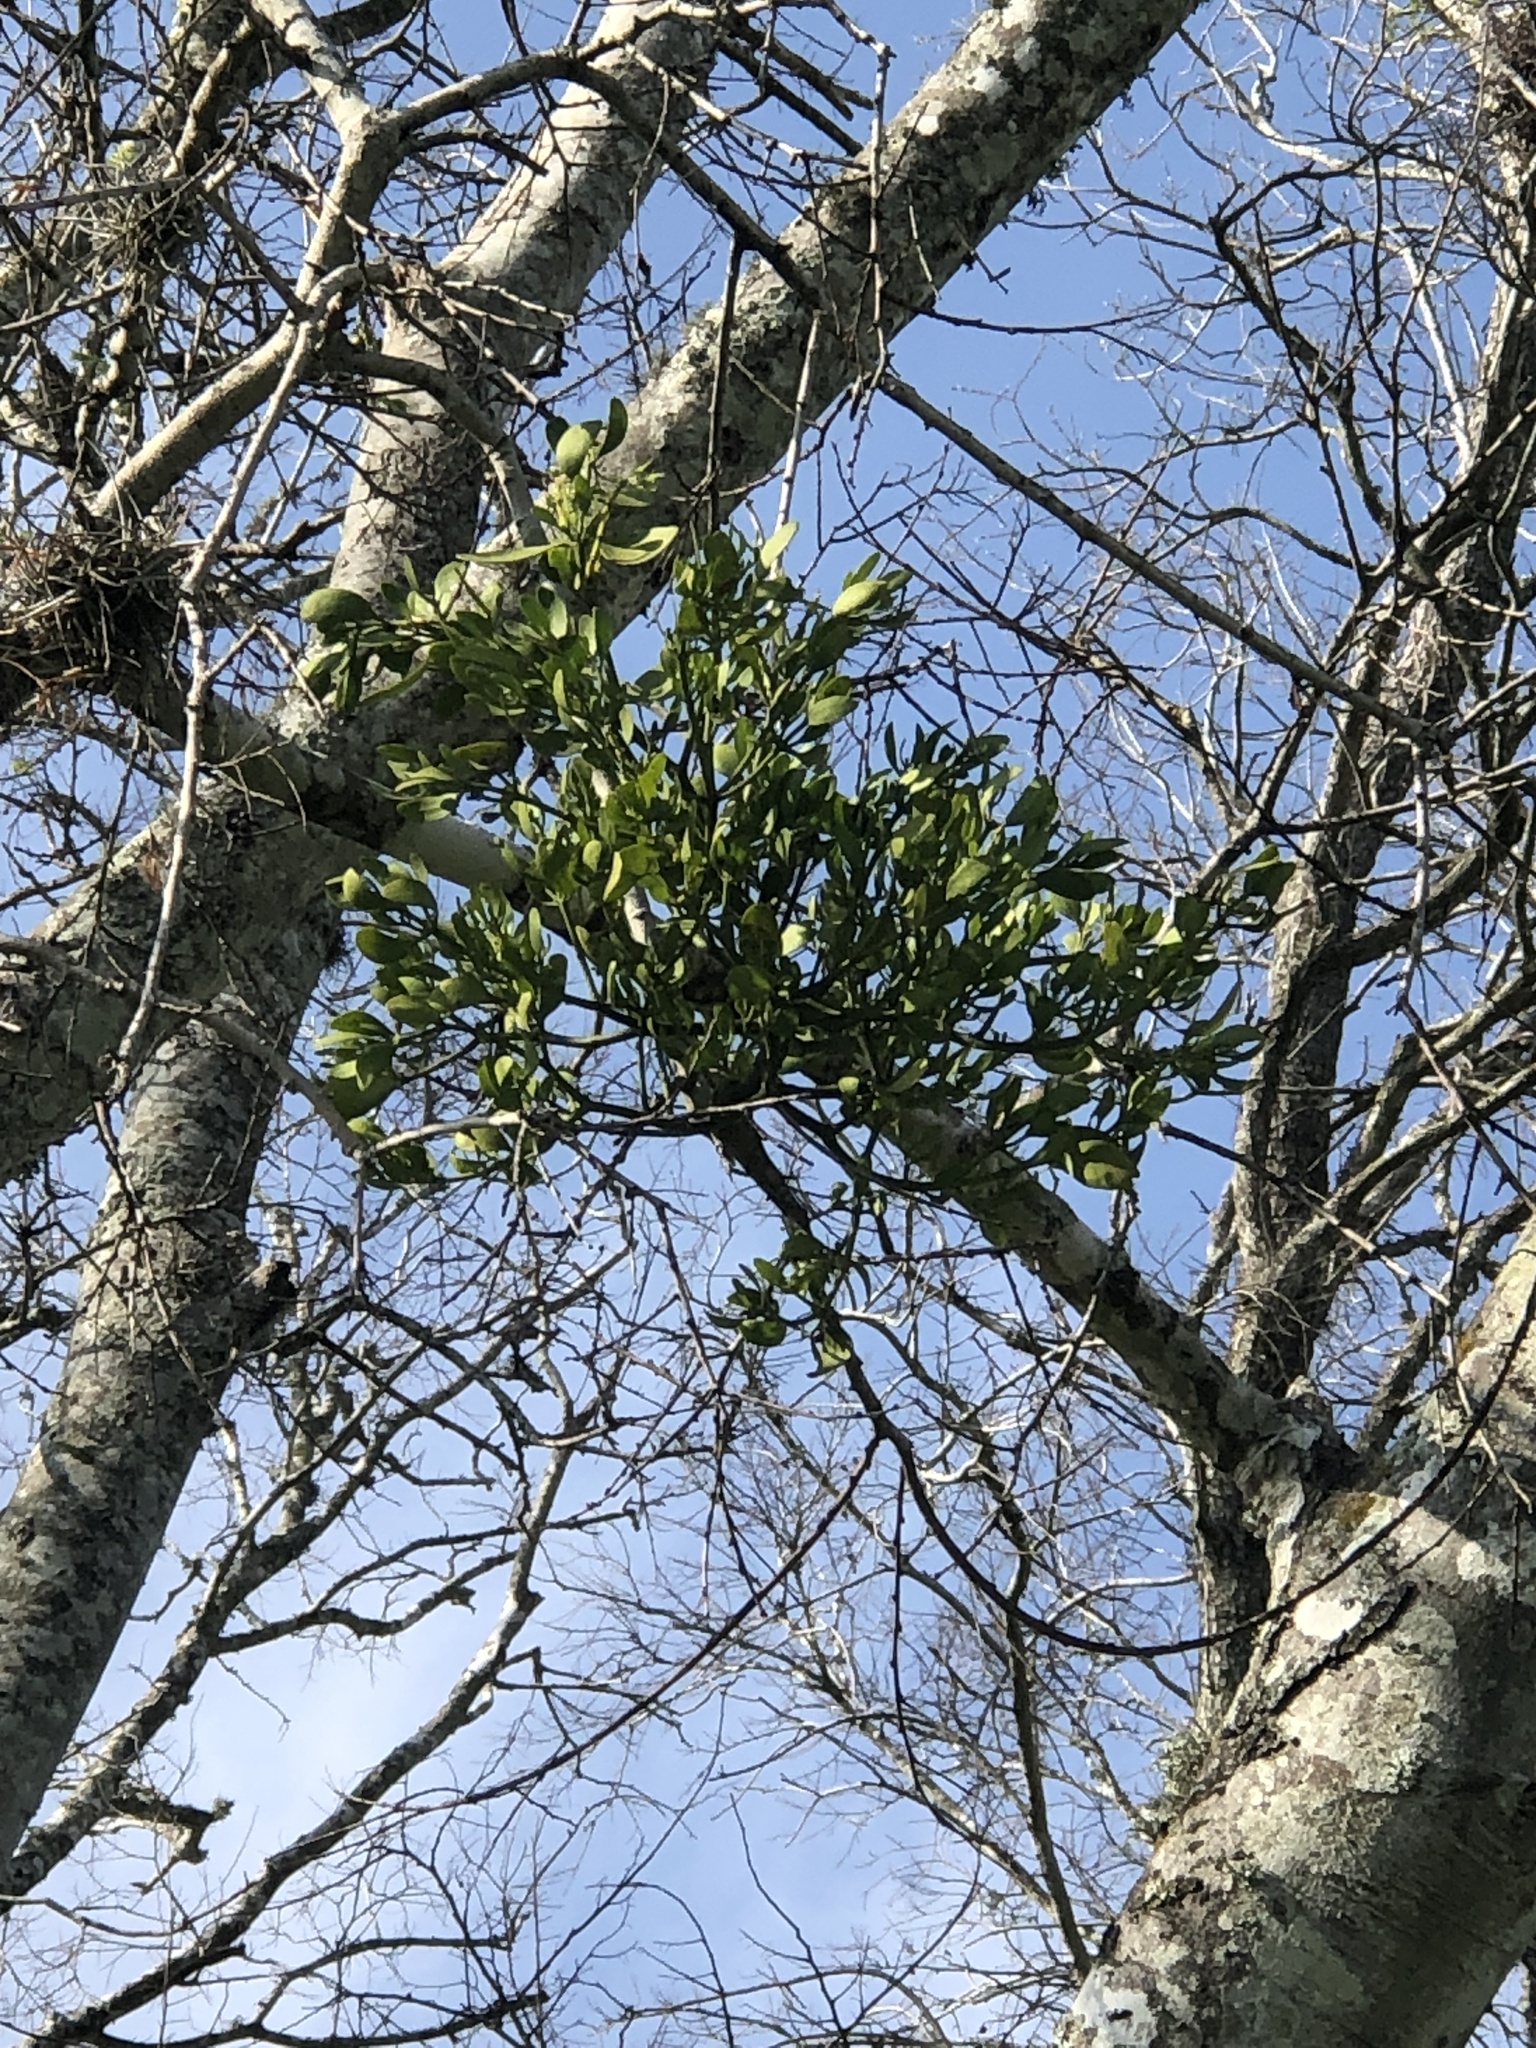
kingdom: Plantae
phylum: Tracheophyta
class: Magnoliopsida
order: Santalales
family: Viscaceae
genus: Phoradendron
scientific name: Phoradendron leucarpum
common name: Pacific mistletoe
